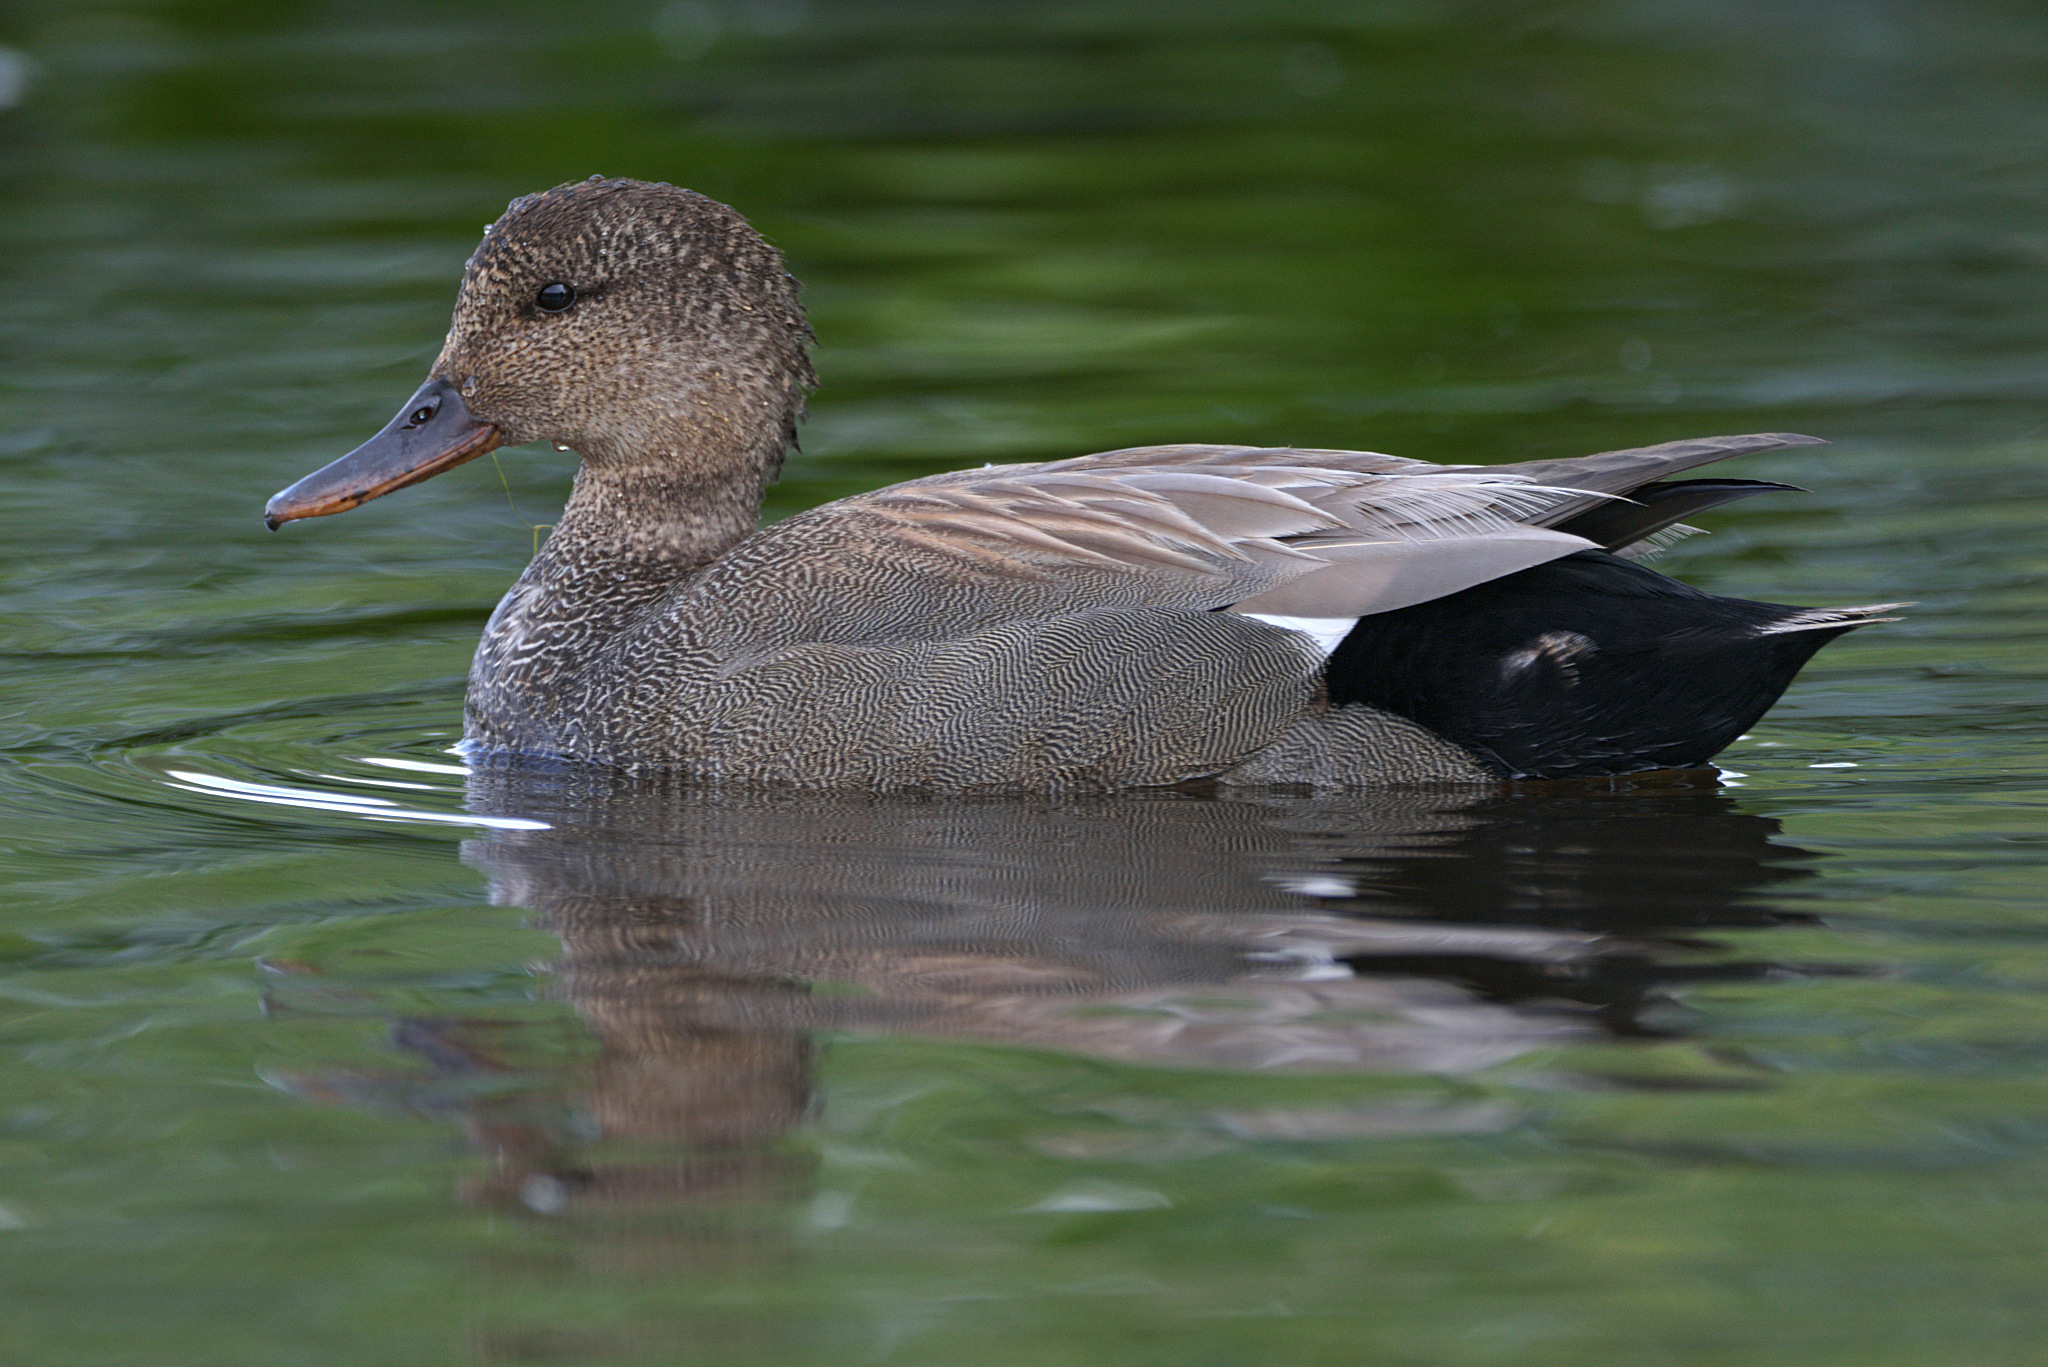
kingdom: Animalia
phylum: Chordata
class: Aves
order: Anseriformes
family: Anatidae
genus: Mareca
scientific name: Mareca strepera
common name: Gadwall
